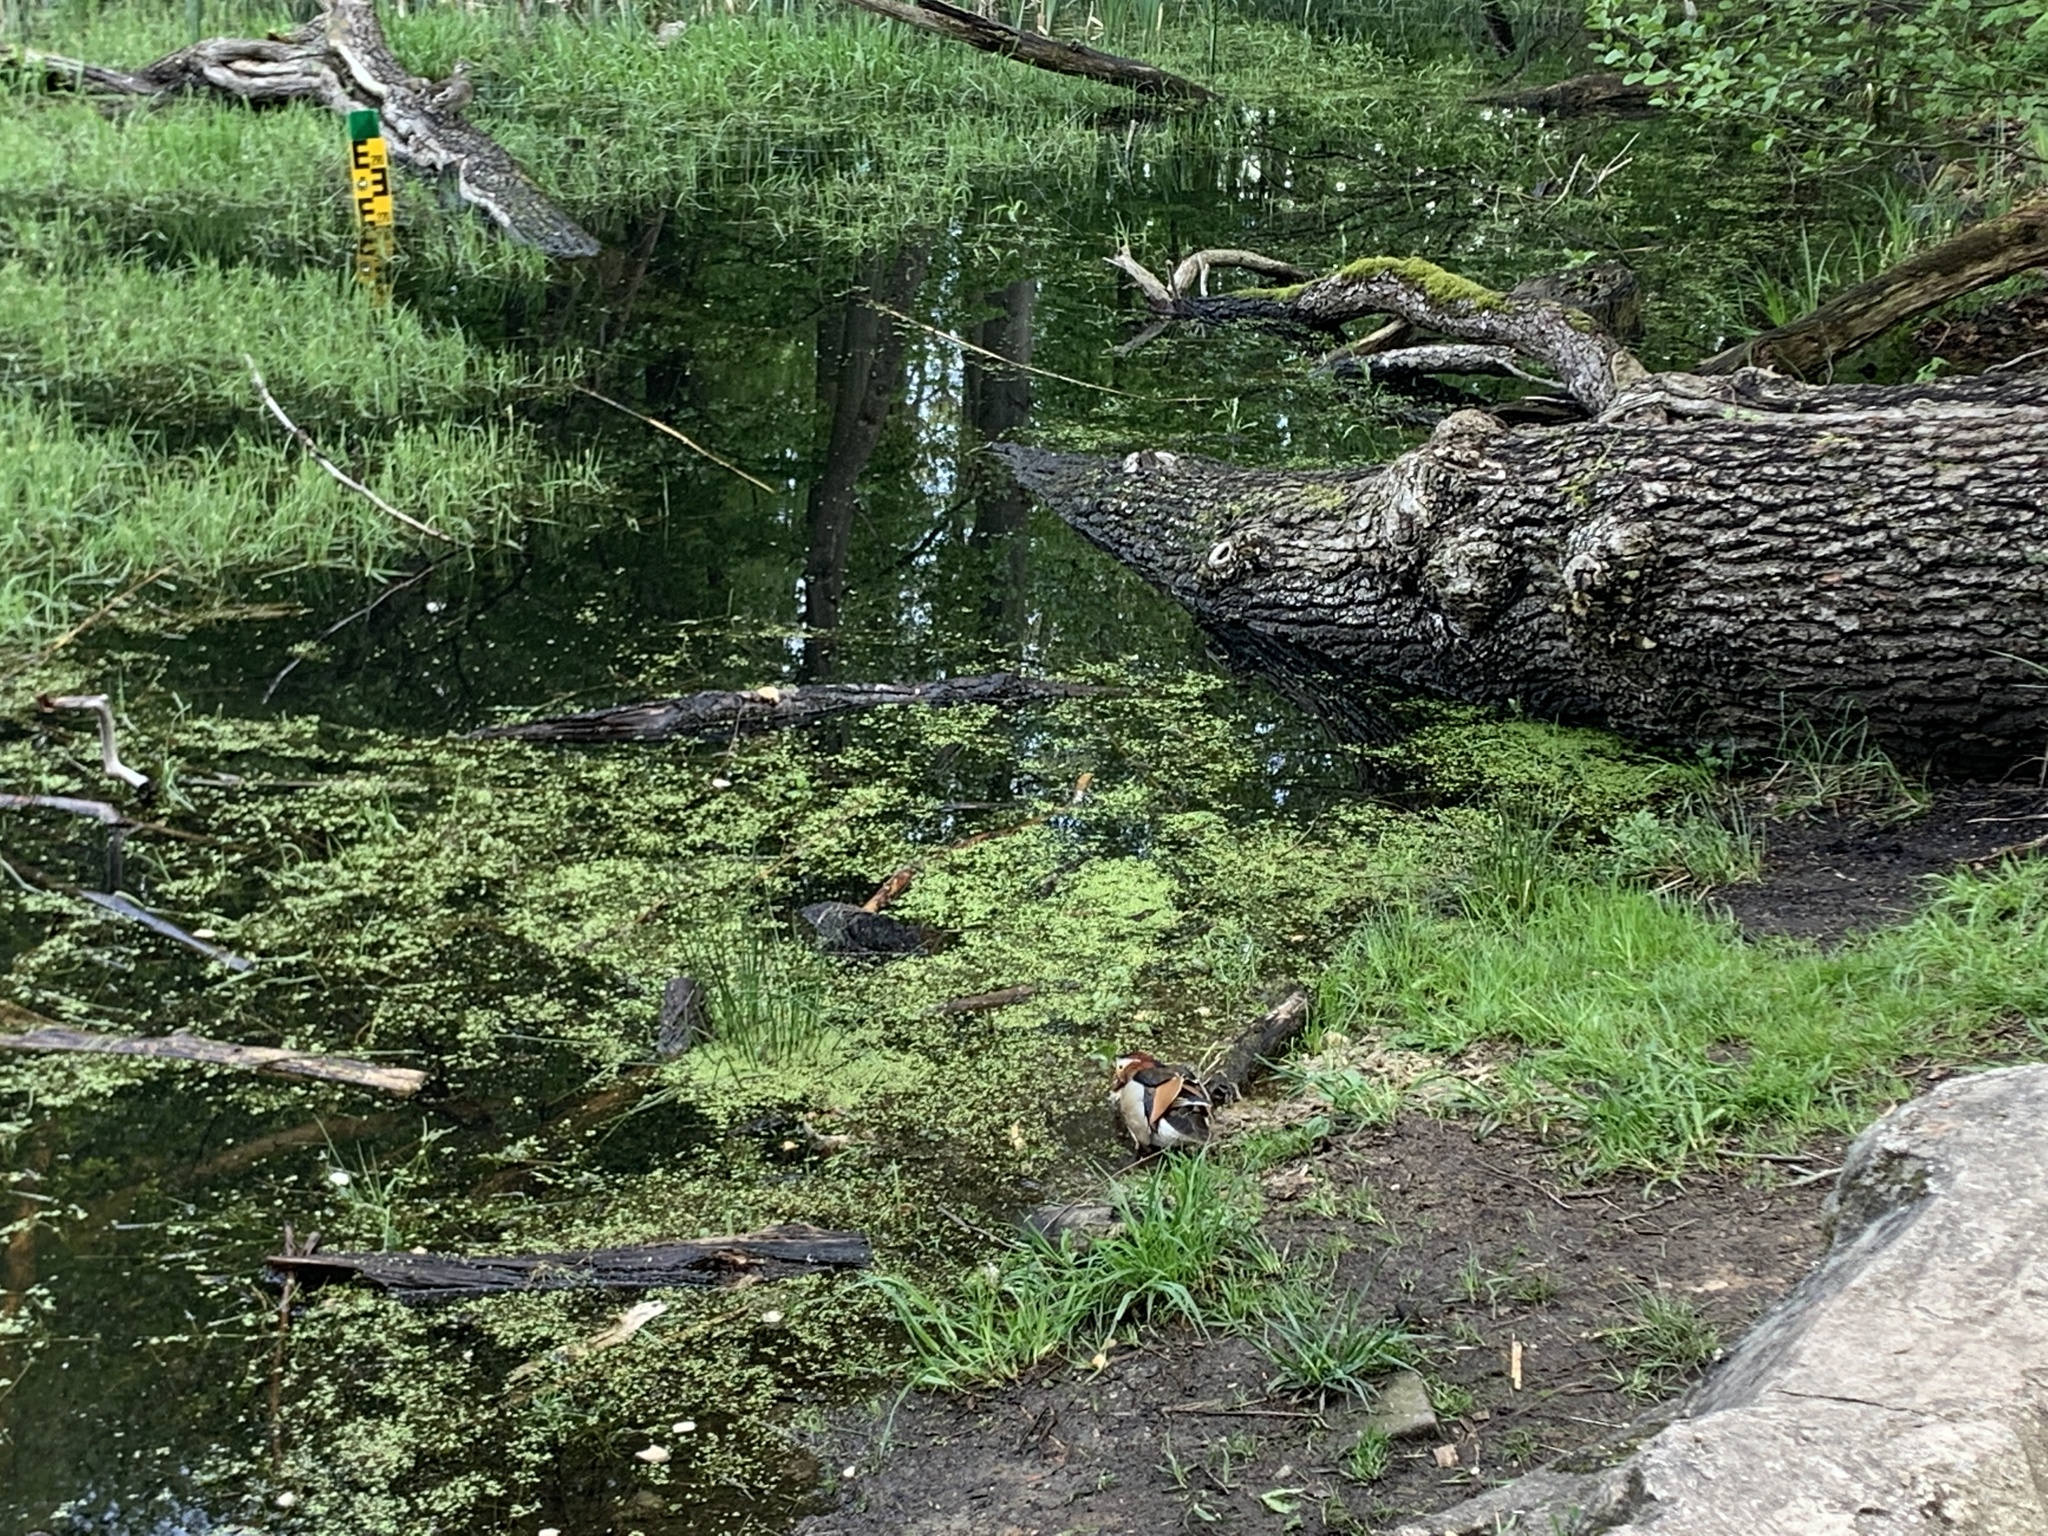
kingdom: Animalia
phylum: Chordata
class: Aves
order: Anseriformes
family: Anatidae
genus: Aix
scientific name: Aix galericulata
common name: Mandarin duck
